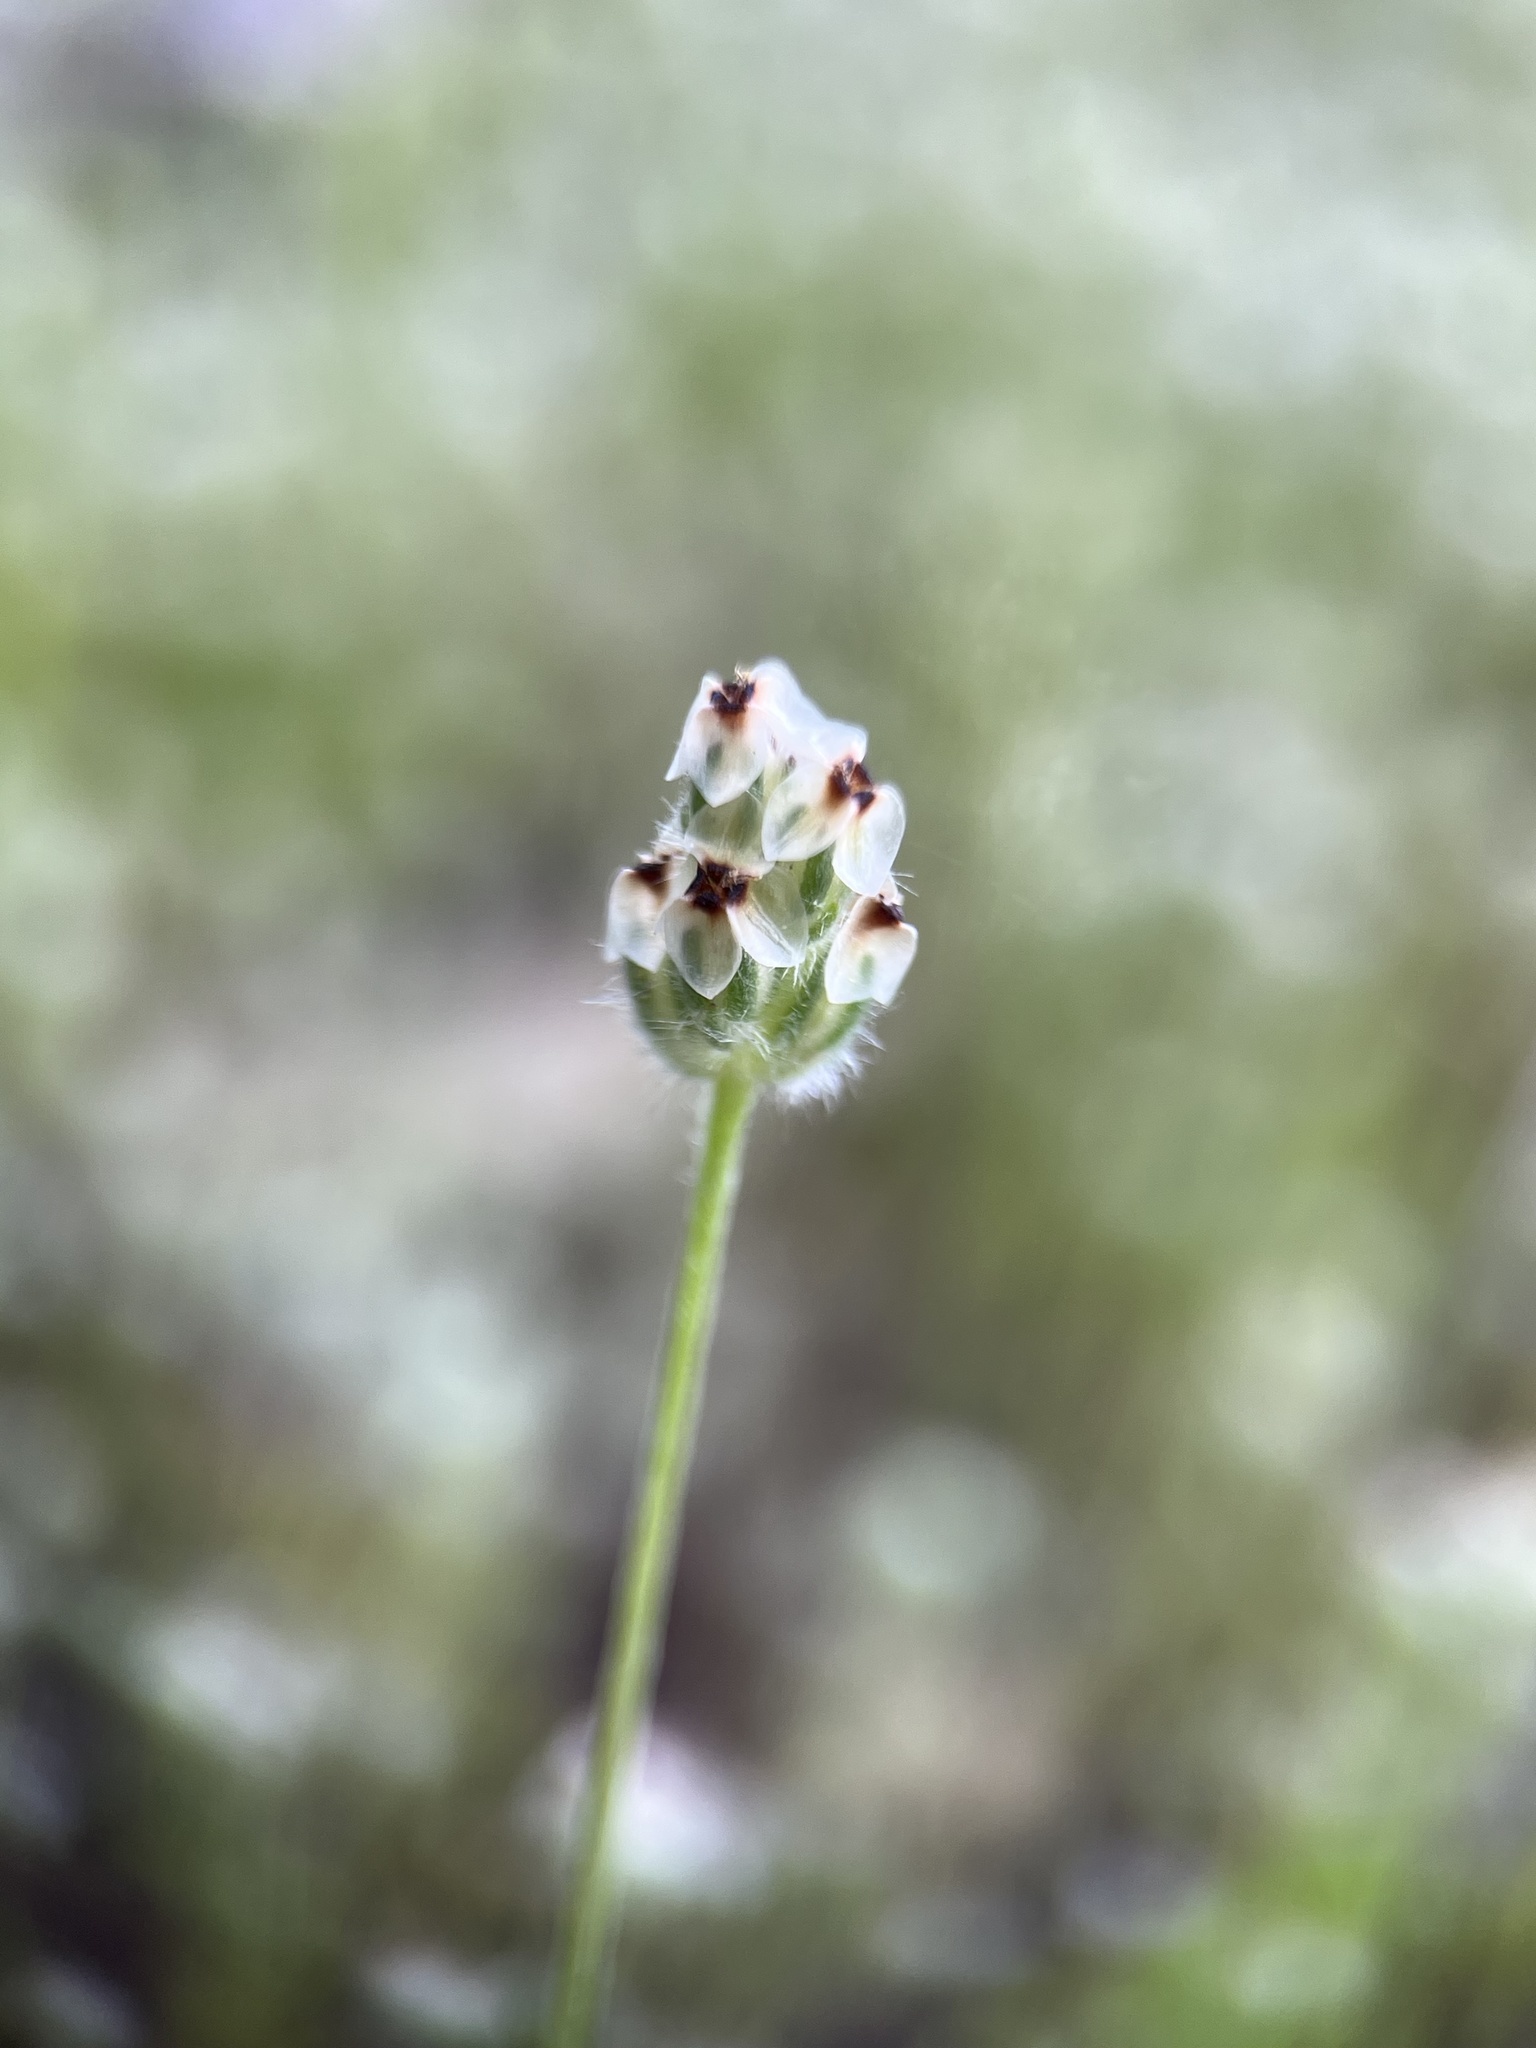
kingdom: Plantae
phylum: Tracheophyta
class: Magnoliopsida
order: Lamiales
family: Plantaginaceae
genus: Plantago
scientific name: Plantago erecta
